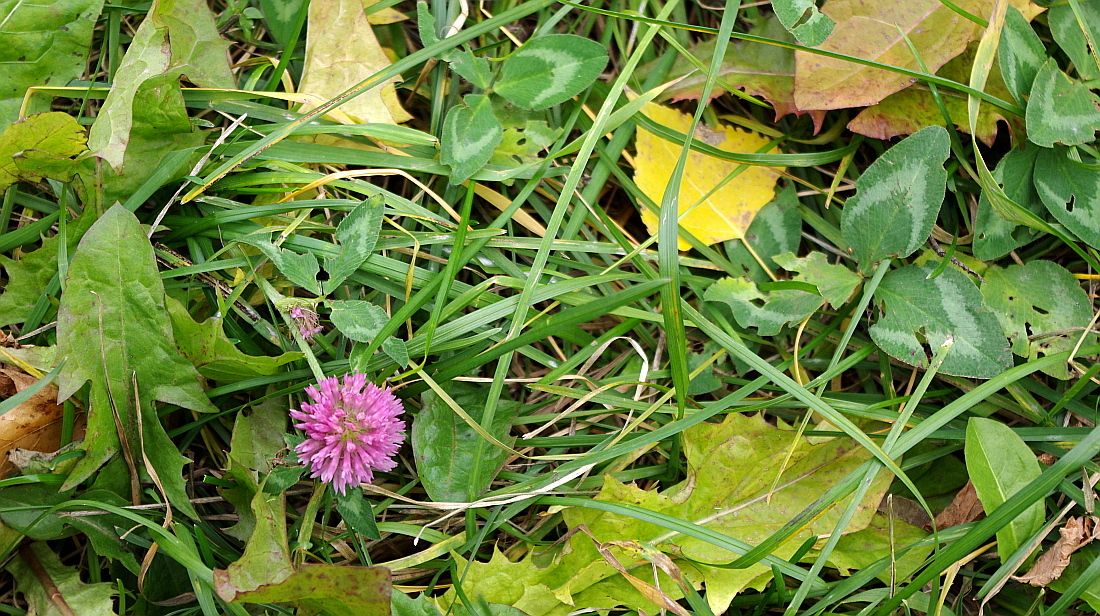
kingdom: Plantae
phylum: Tracheophyta
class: Magnoliopsida
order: Fabales
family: Fabaceae
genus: Trifolium
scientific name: Trifolium pratense
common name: Red clover
